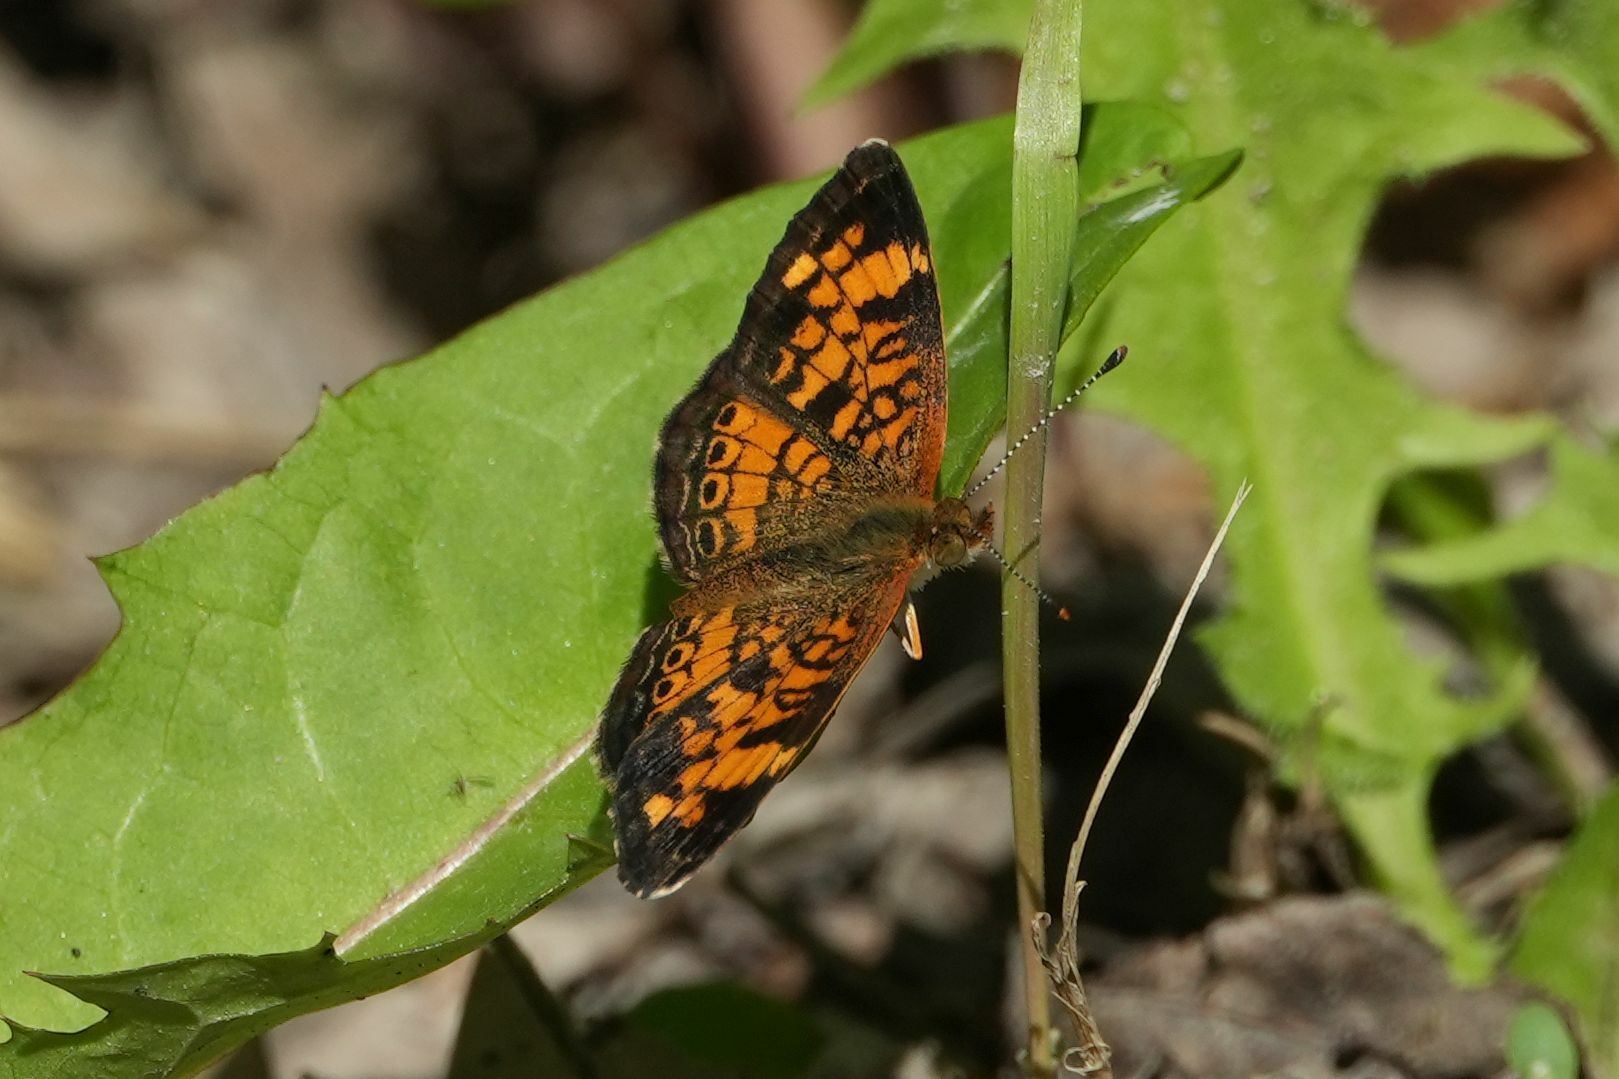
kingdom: Animalia
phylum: Arthropoda
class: Insecta
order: Lepidoptera
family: Nymphalidae
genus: Phyciodes
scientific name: Phyciodes tharos
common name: Pearl crescent
